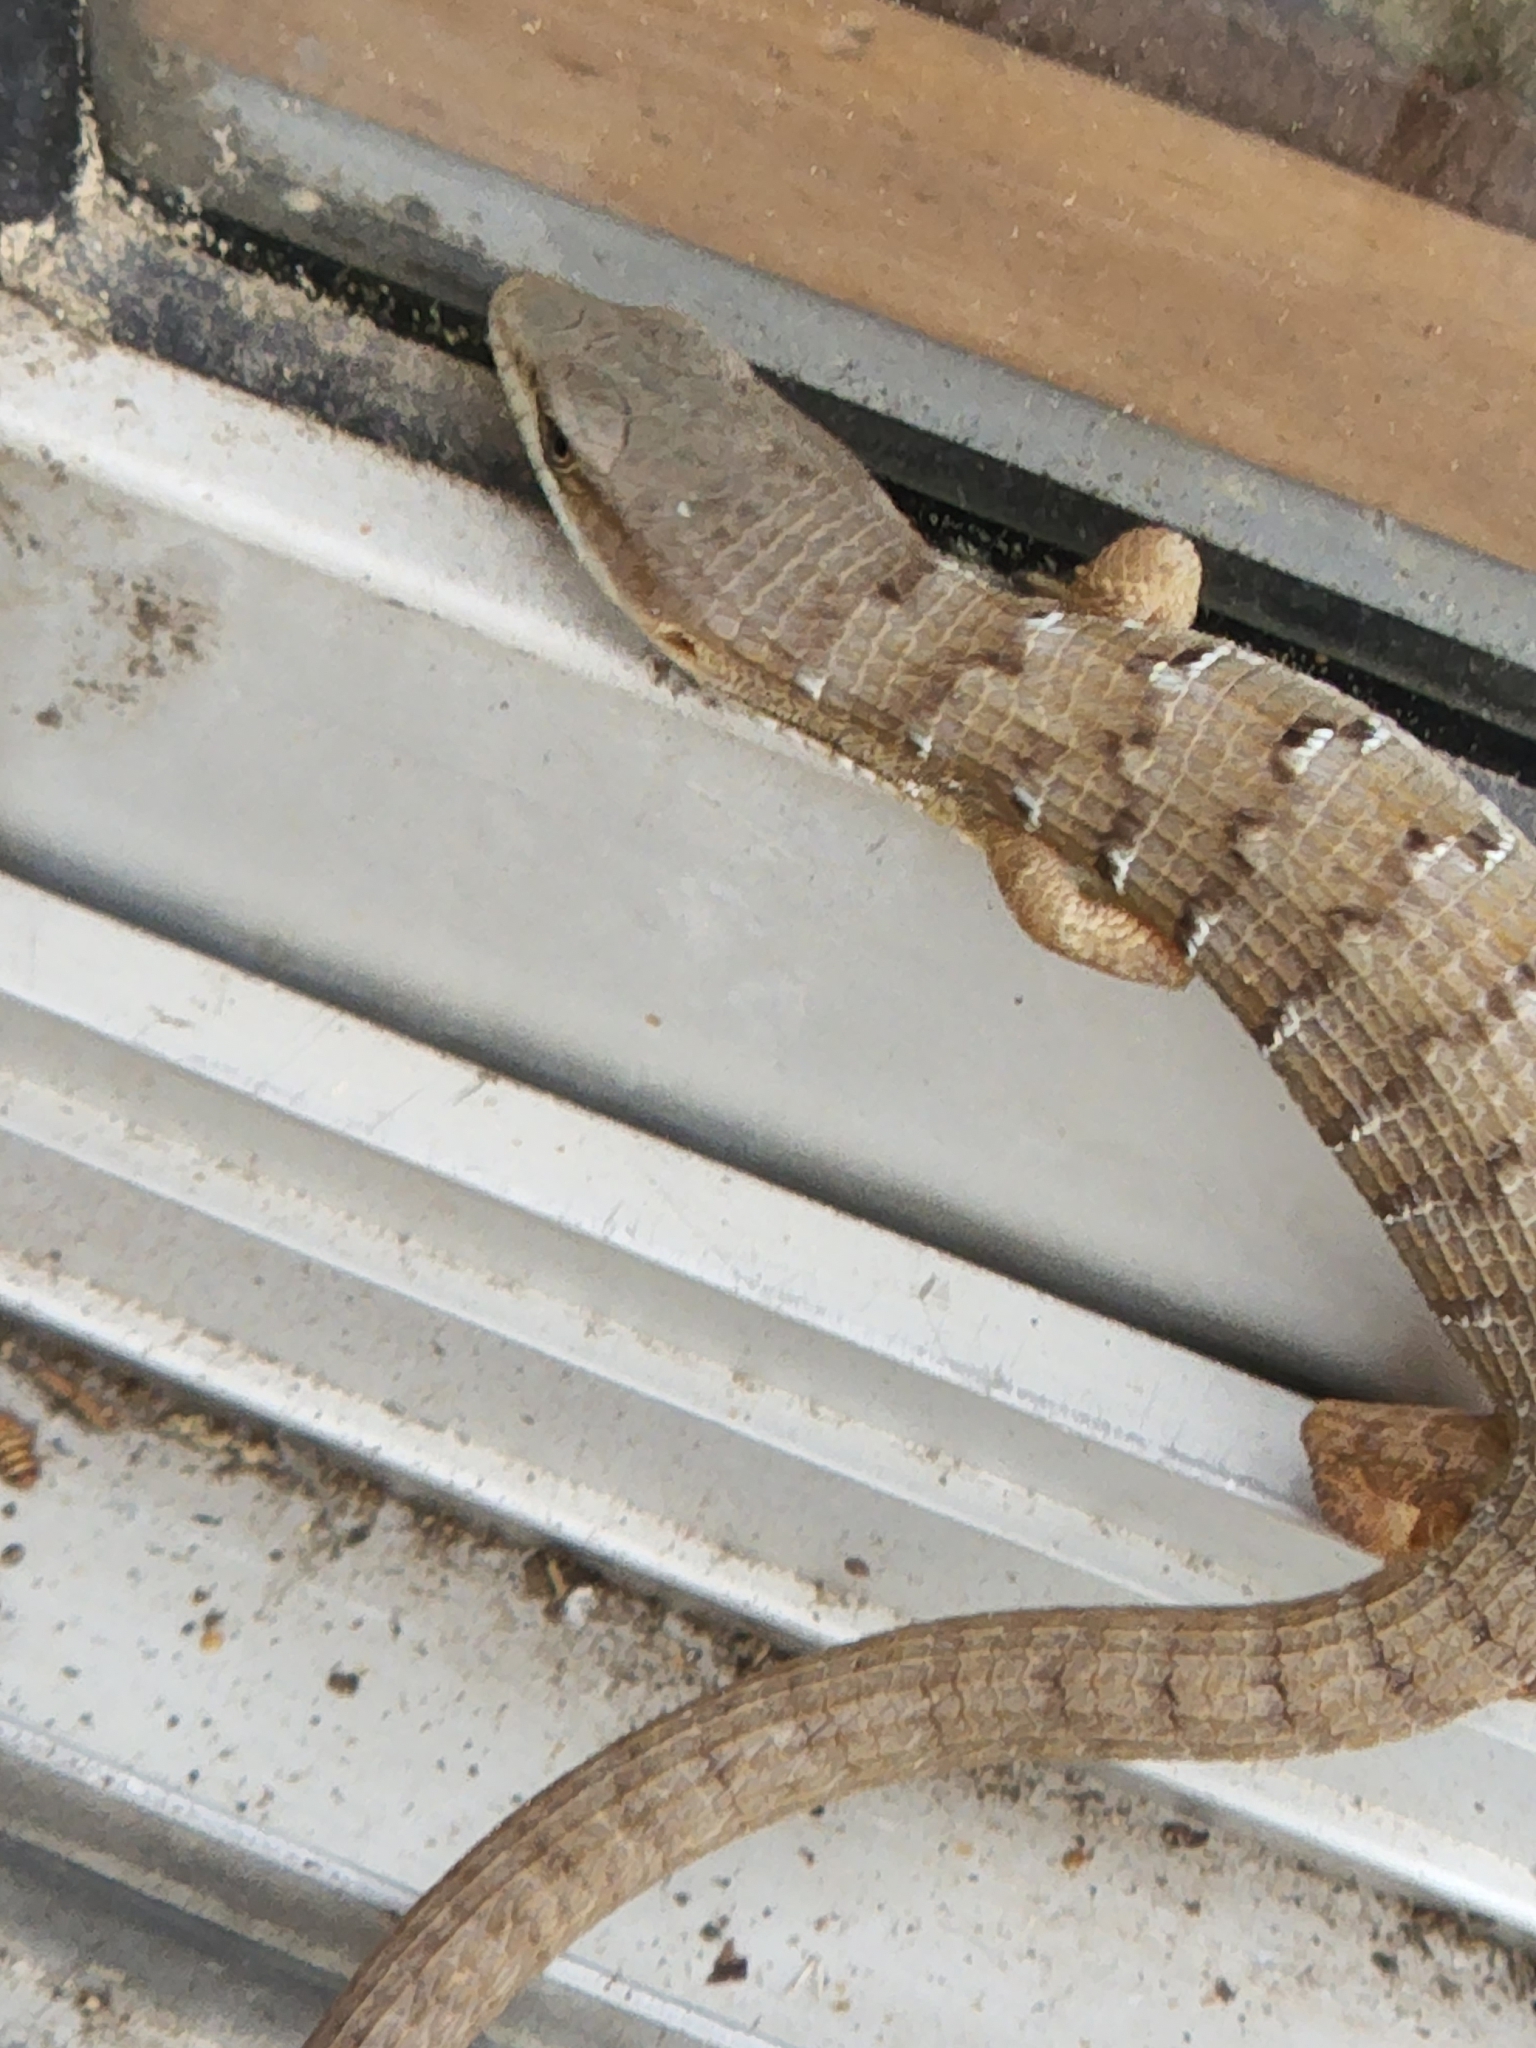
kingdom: Animalia
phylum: Chordata
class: Squamata
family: Anguidae
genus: Elgaria
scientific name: Elgaria multicarinata
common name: Southern alligator lizard
